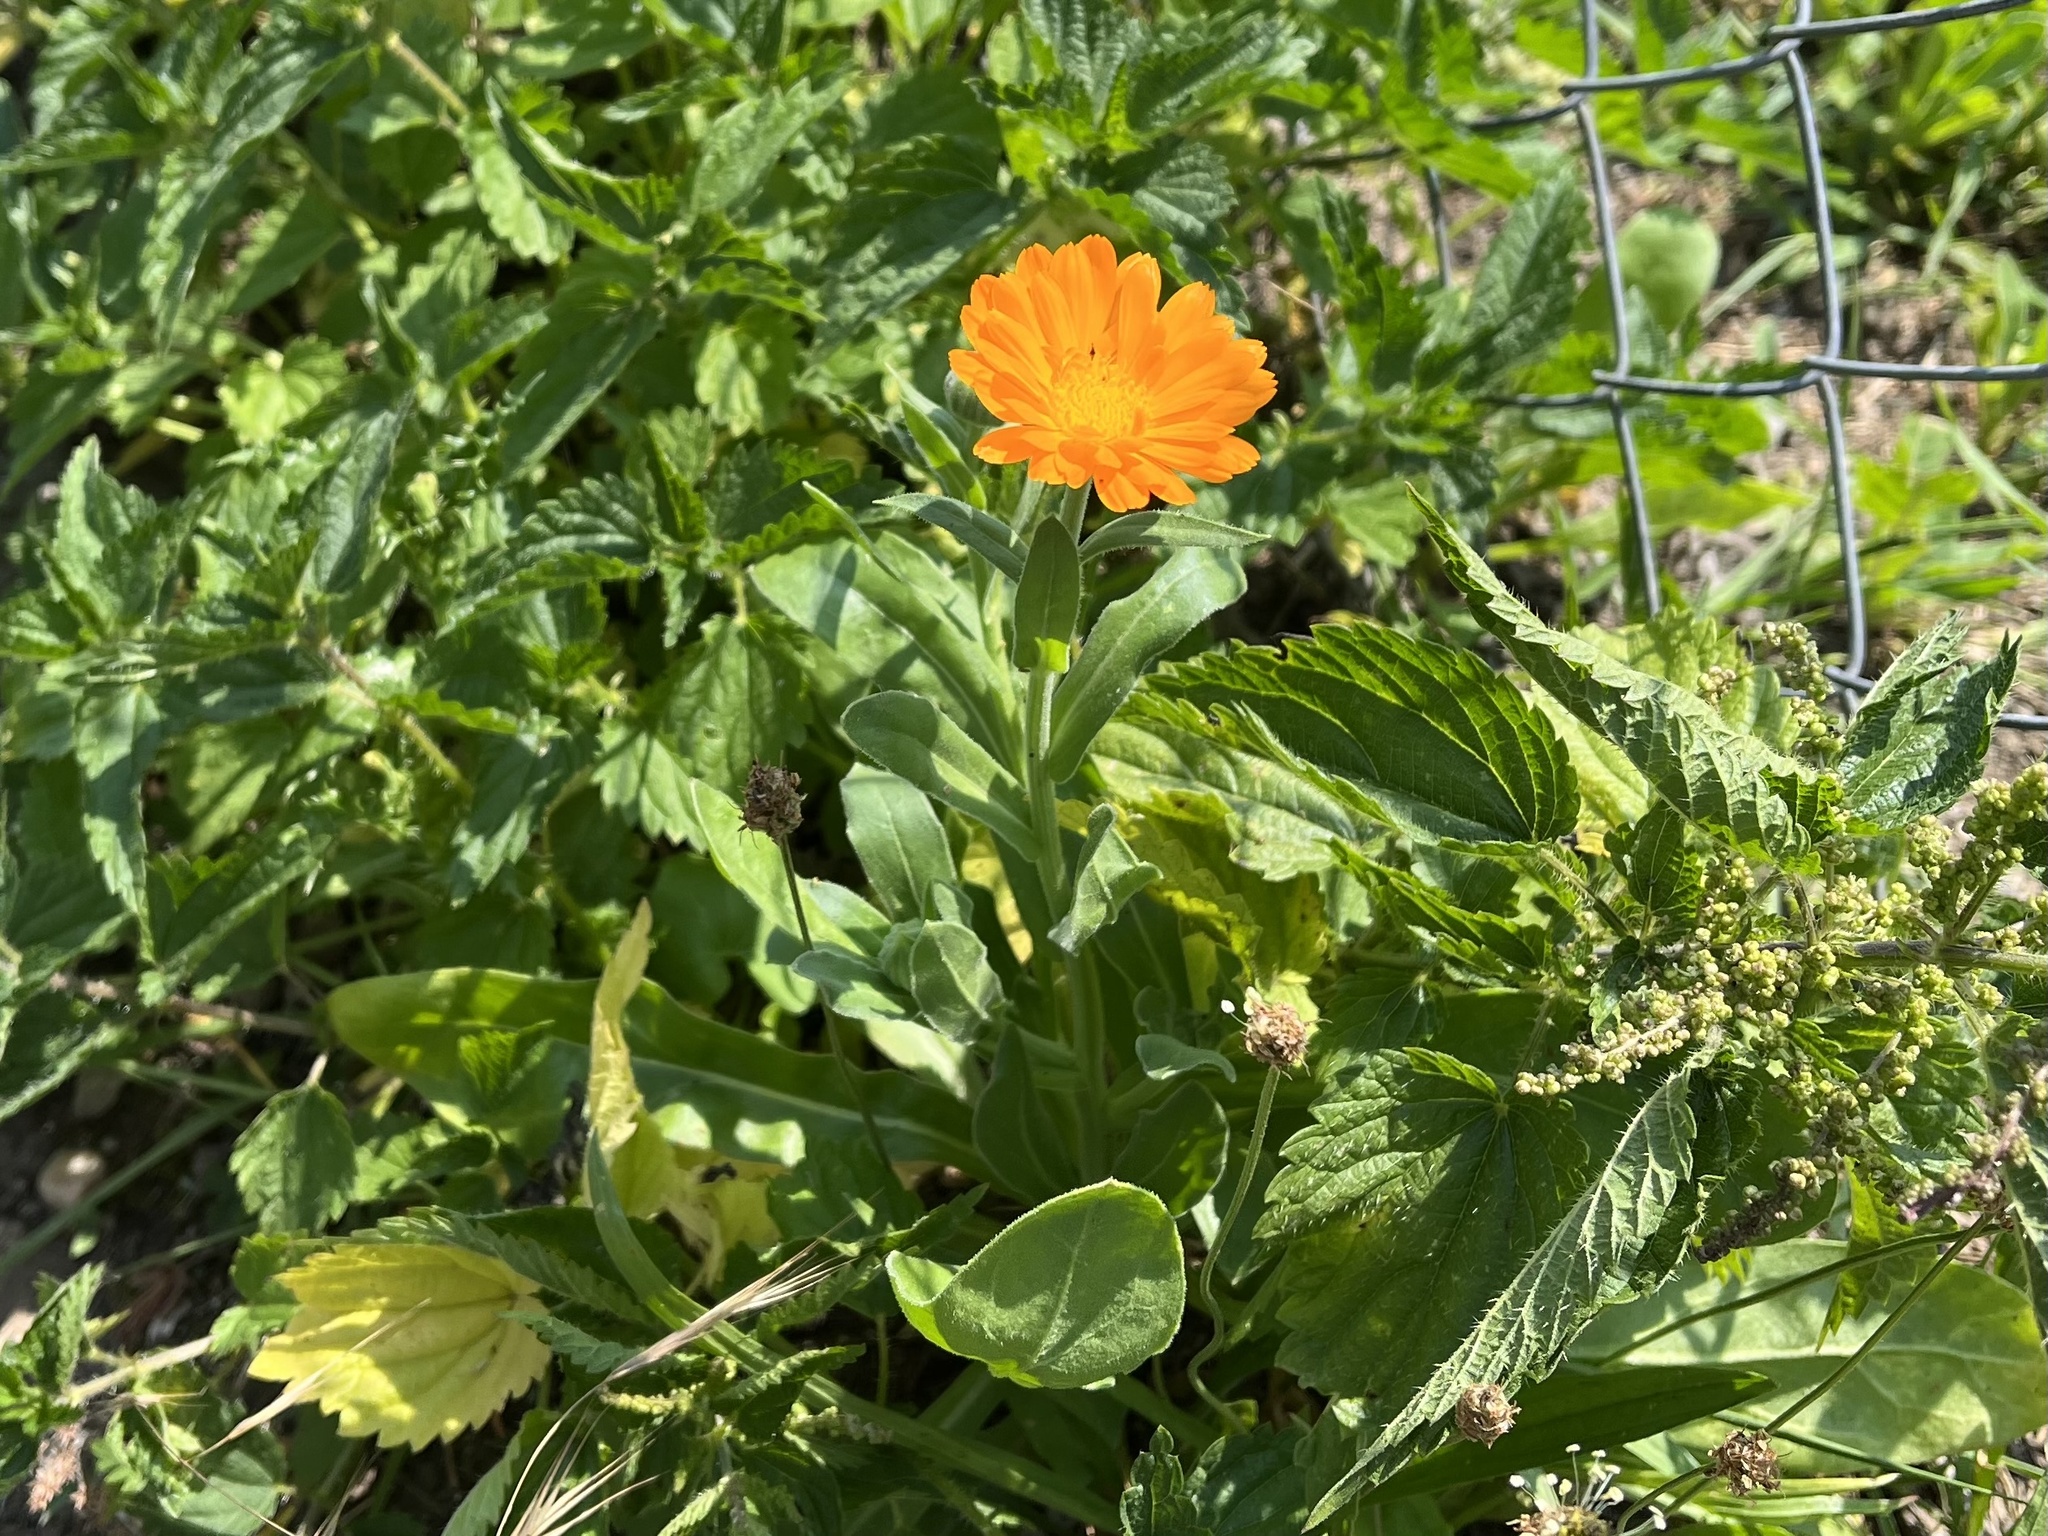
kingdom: Plantae
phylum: Tracheophyta
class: Magnoliopsida
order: Asterales
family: Asteraceae
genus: Calendula
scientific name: Calendula officinalis
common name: Pot marigold
